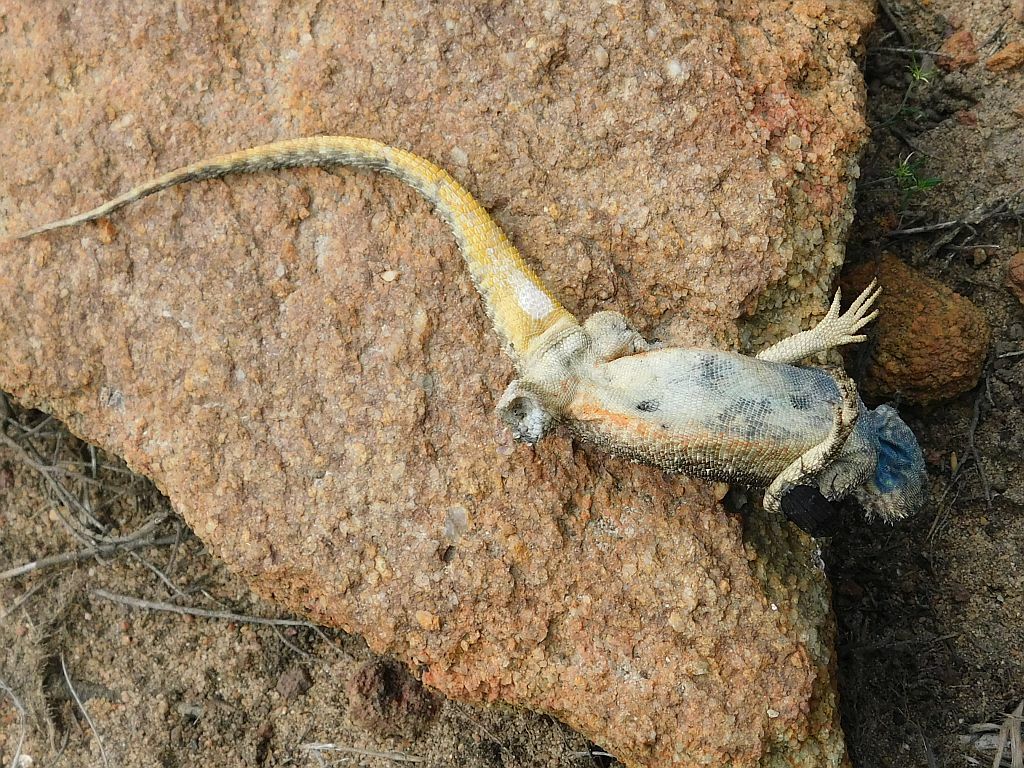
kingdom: Animalia
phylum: Chordata
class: Squamata
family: Agamidae
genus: Agama
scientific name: Agama atra
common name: Southern african rock agama
